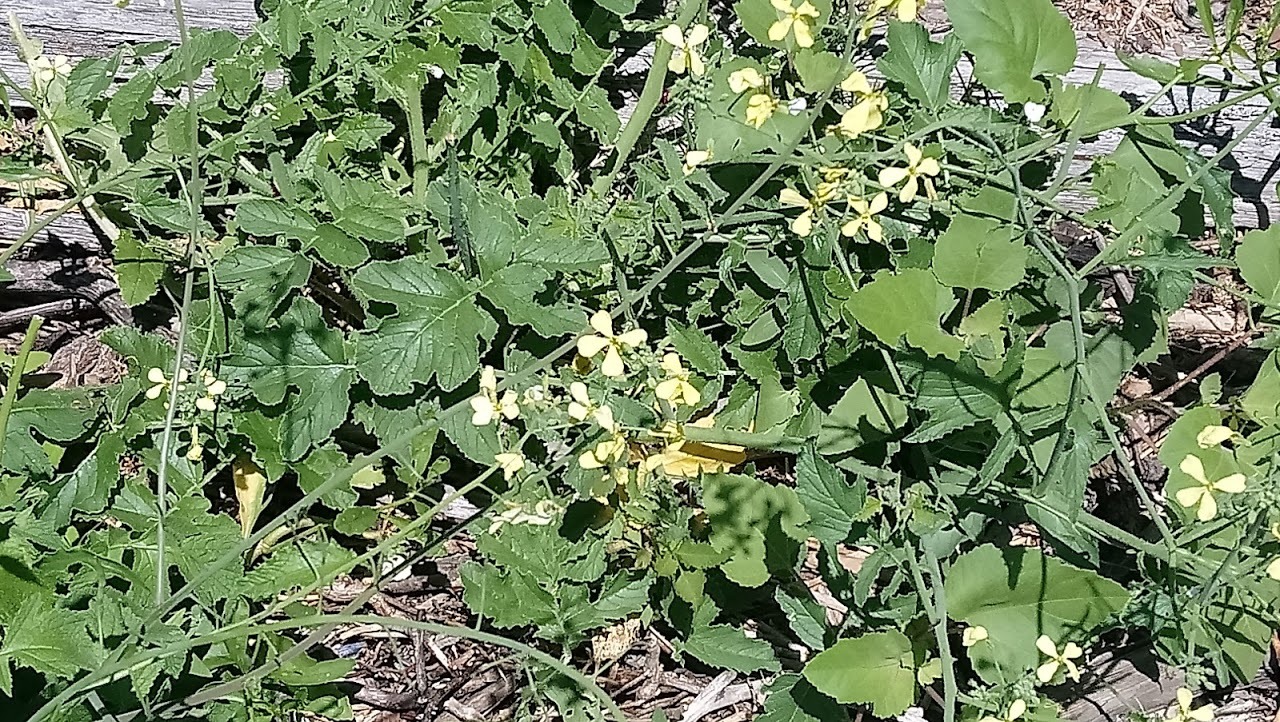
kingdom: Plantae
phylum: Tracheophyta
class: Magnoliopsida
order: Brassicales
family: Brassicaceae
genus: Raphanus
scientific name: Raphanus raphanistrum
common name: Wild radish
